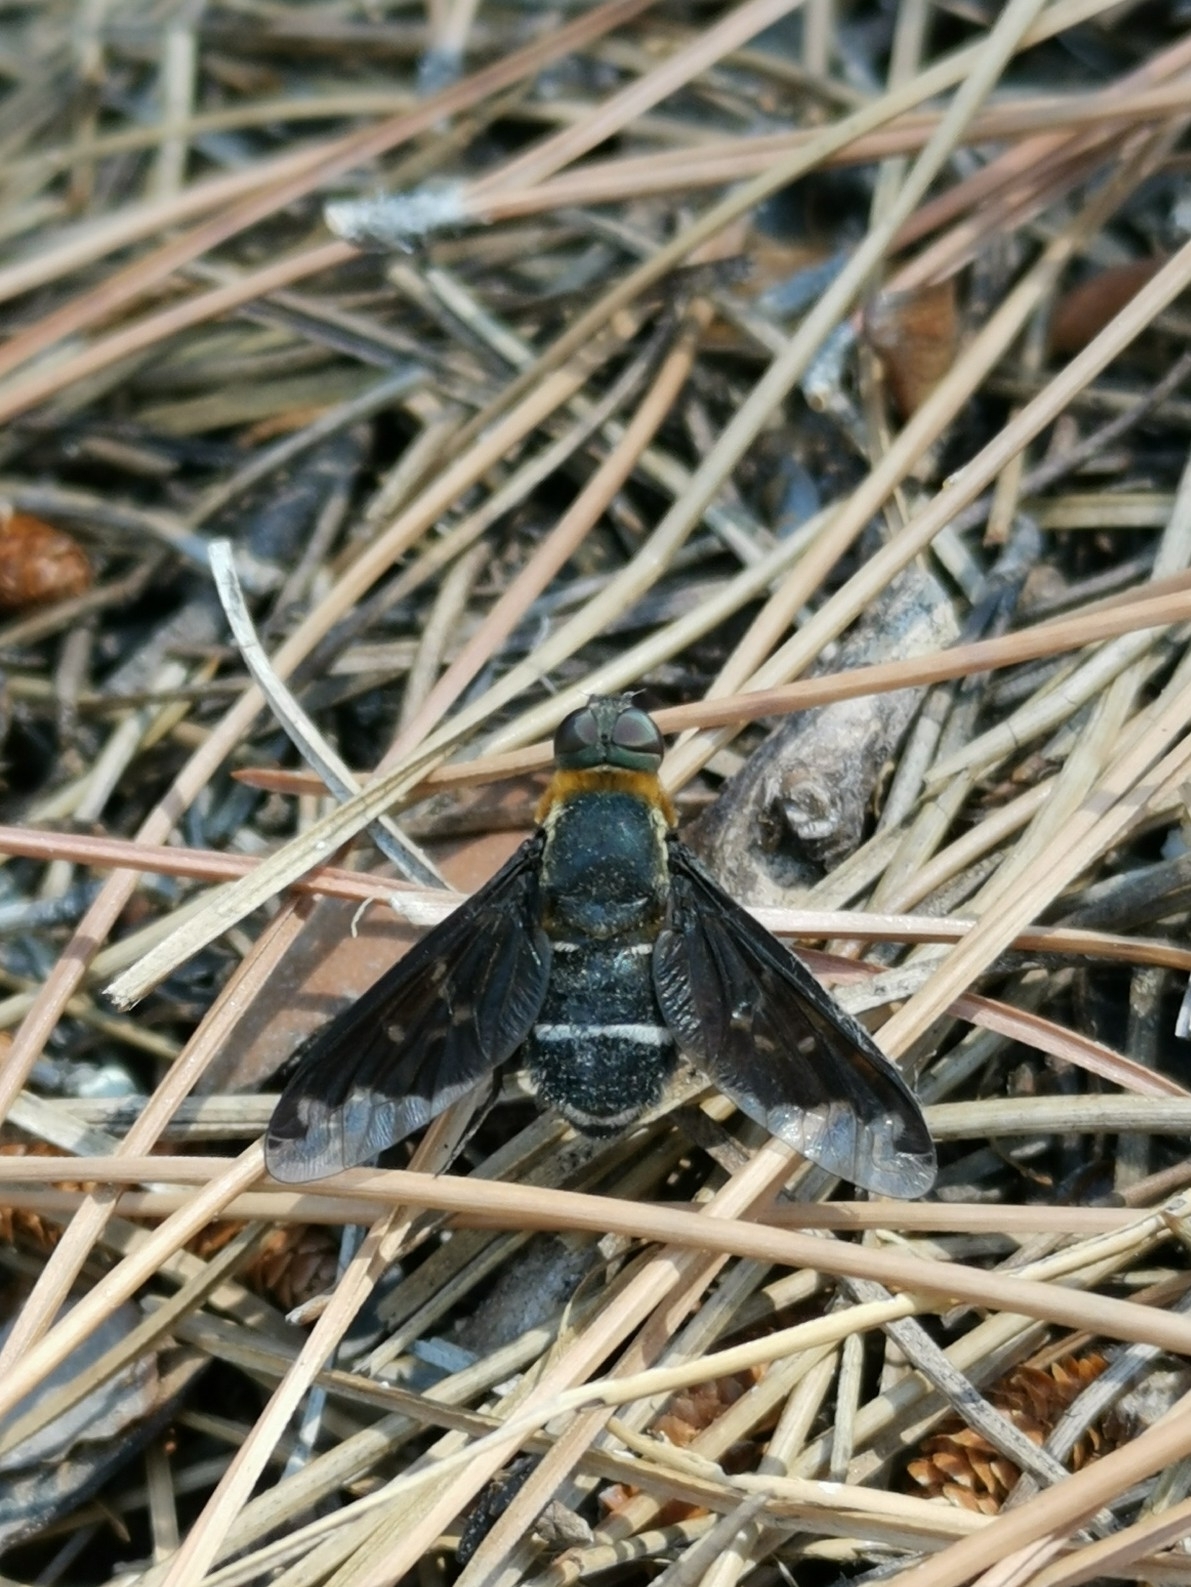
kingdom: Animalia
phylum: Arthropoda
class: Insecta
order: Diptera
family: Bombyliidae
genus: Hemipenthes
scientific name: Hemipenthes velutina
